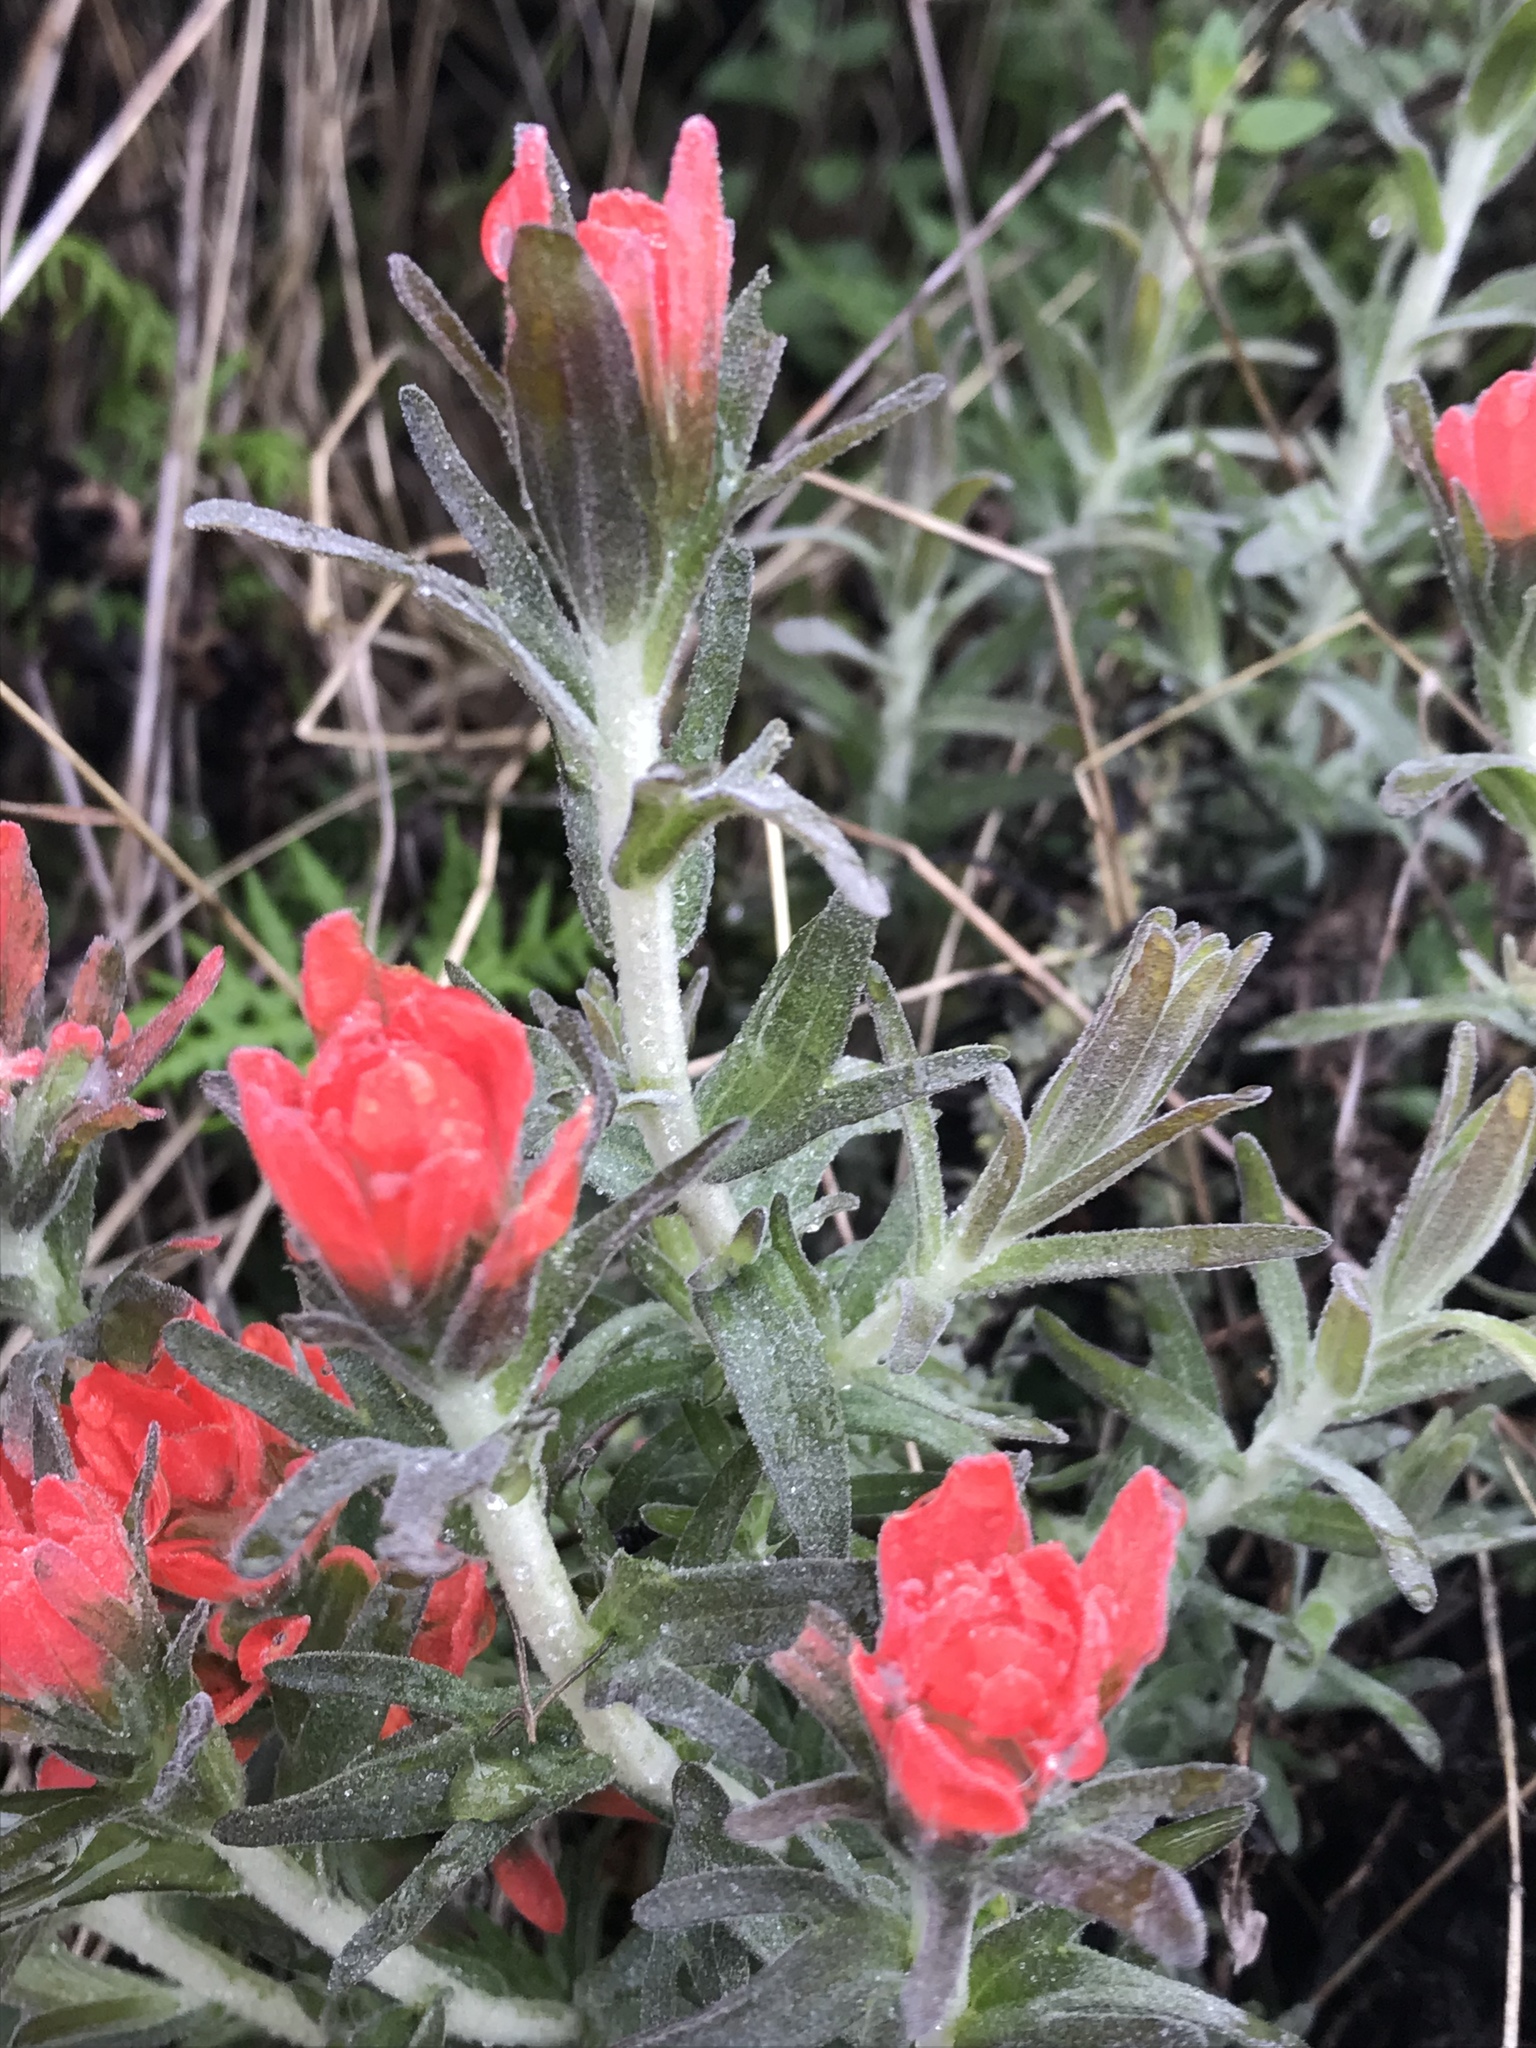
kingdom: Plantae
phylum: Tracheophyta
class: Magnoliopsida
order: Lamiales
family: Orobanchaceae
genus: Castilleja
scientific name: Castilleja foliolosa
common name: Woolly indian paintbrush
